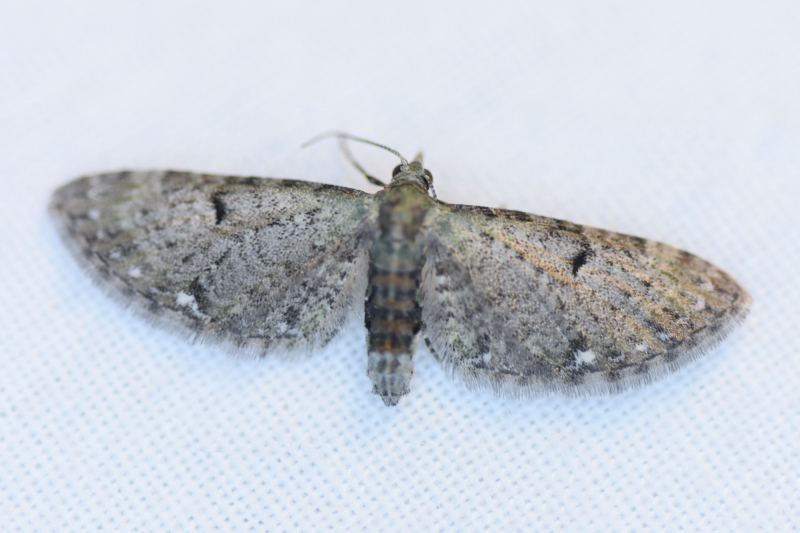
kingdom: Animalia
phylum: Arthropoda
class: Insecta
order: Lepidoptera
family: Geometridae
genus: Eupithecia
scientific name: Eupithecia miserulata
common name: Common eupithecia
